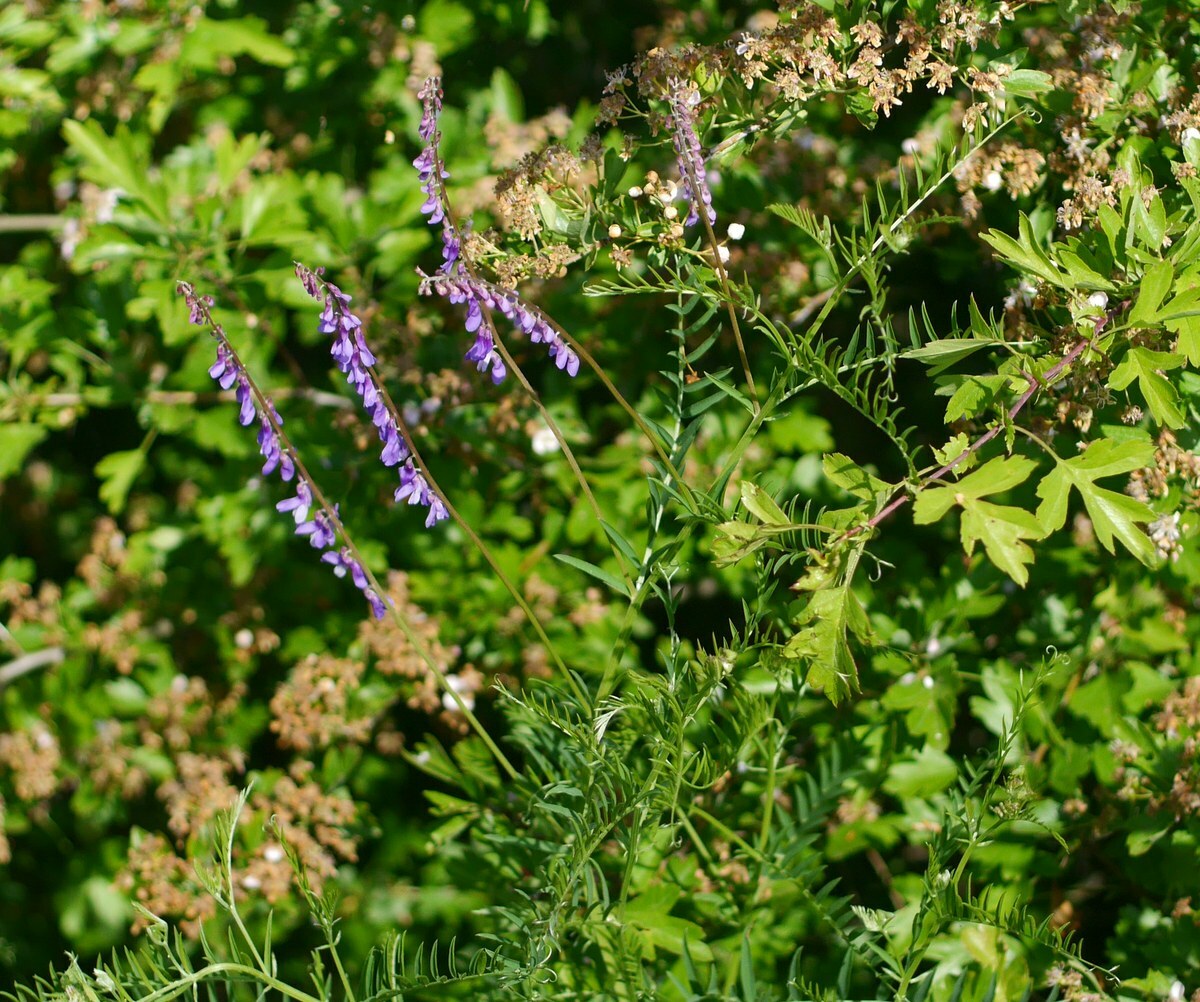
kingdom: Plantae
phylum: Tracheophyta
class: Magnoliopsida
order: Fabales
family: Fabaceae
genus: Vicia
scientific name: Vicia tenuifolia
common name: Fine-leaved vetch
